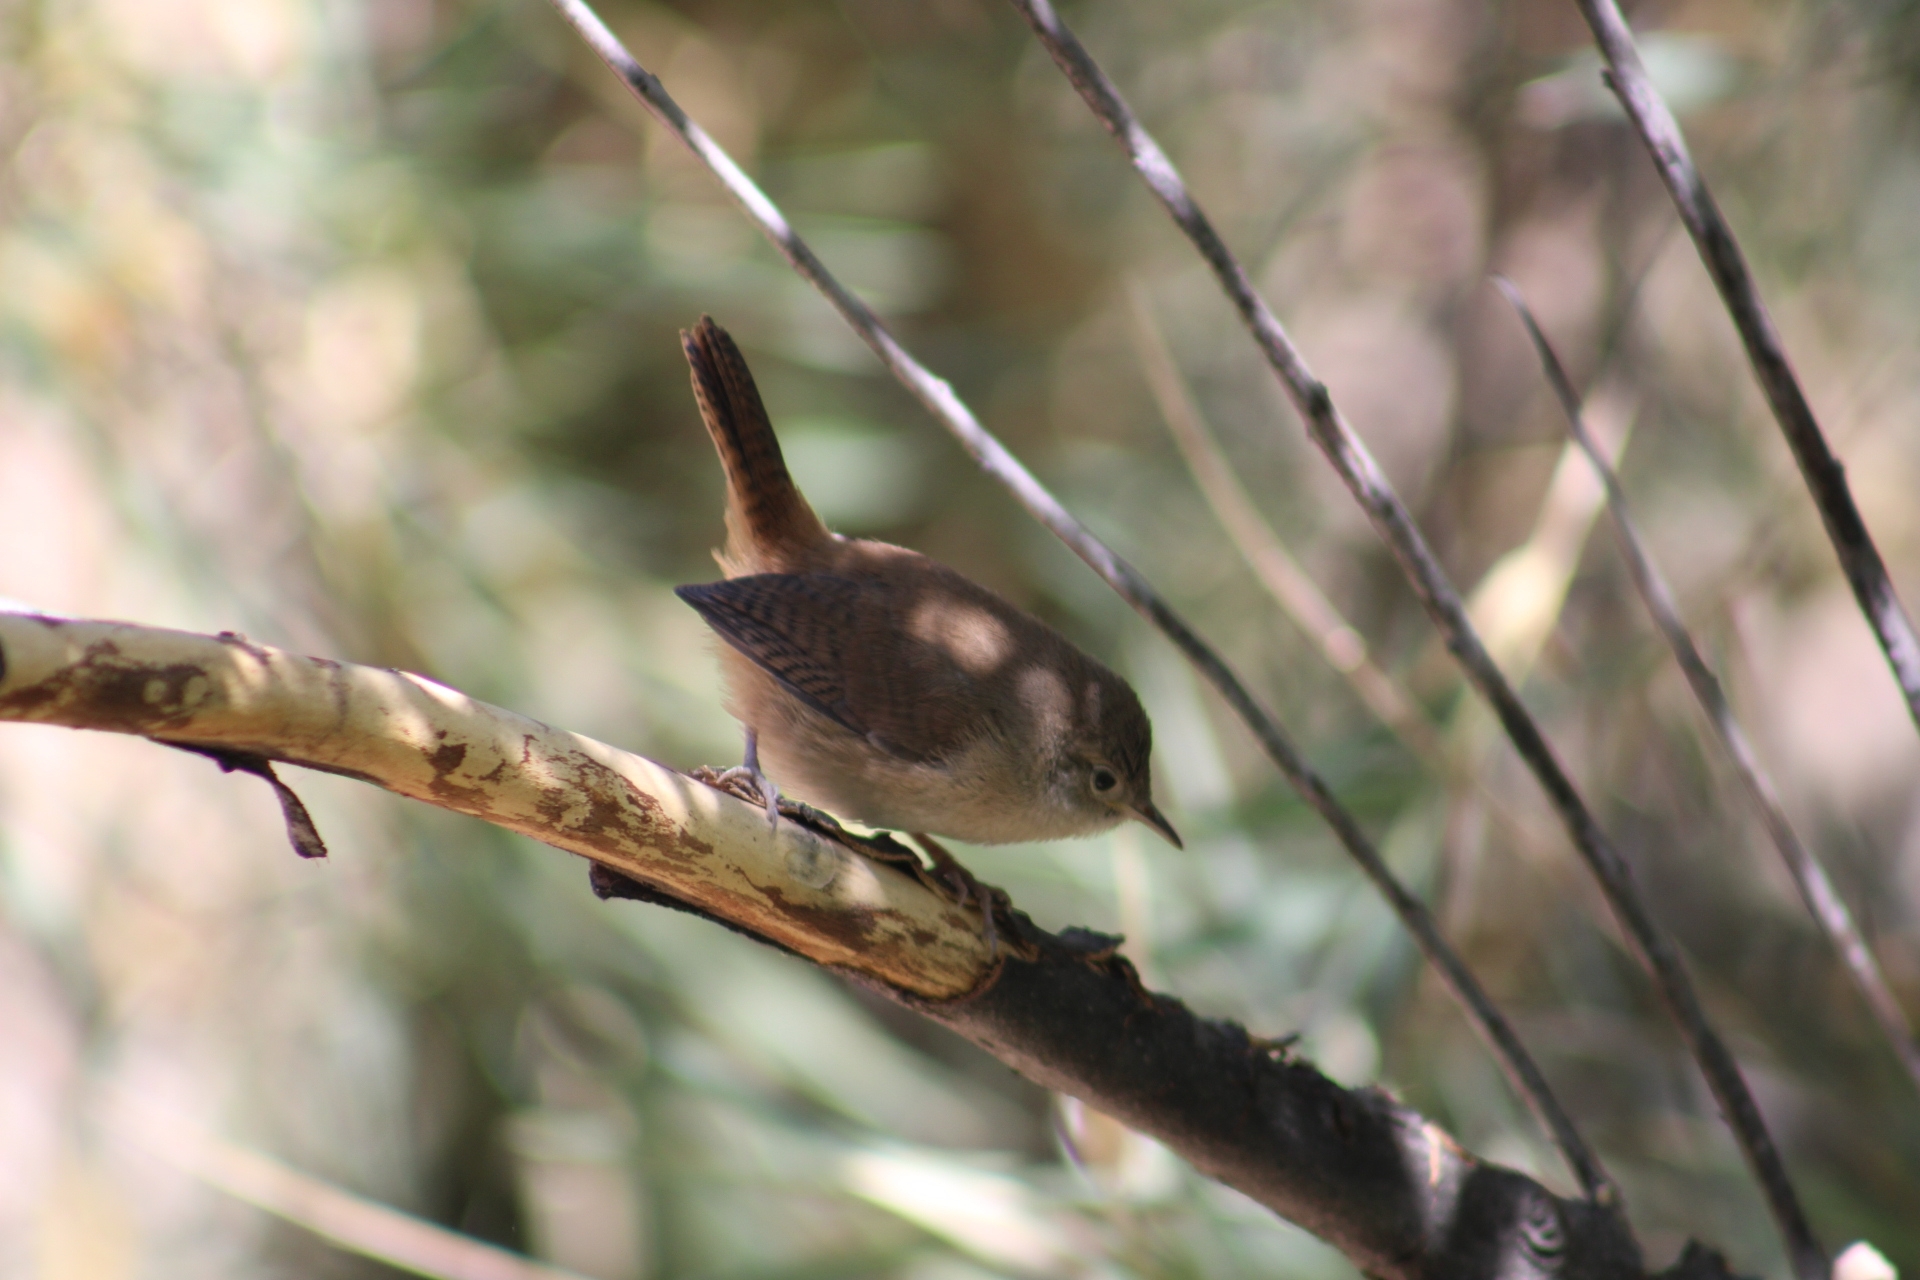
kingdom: Animalia
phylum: Chordata
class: Aves
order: Passeriformes
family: Troglodytidae
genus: Troglodytes
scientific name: Troglodytes aedon
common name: House wren
